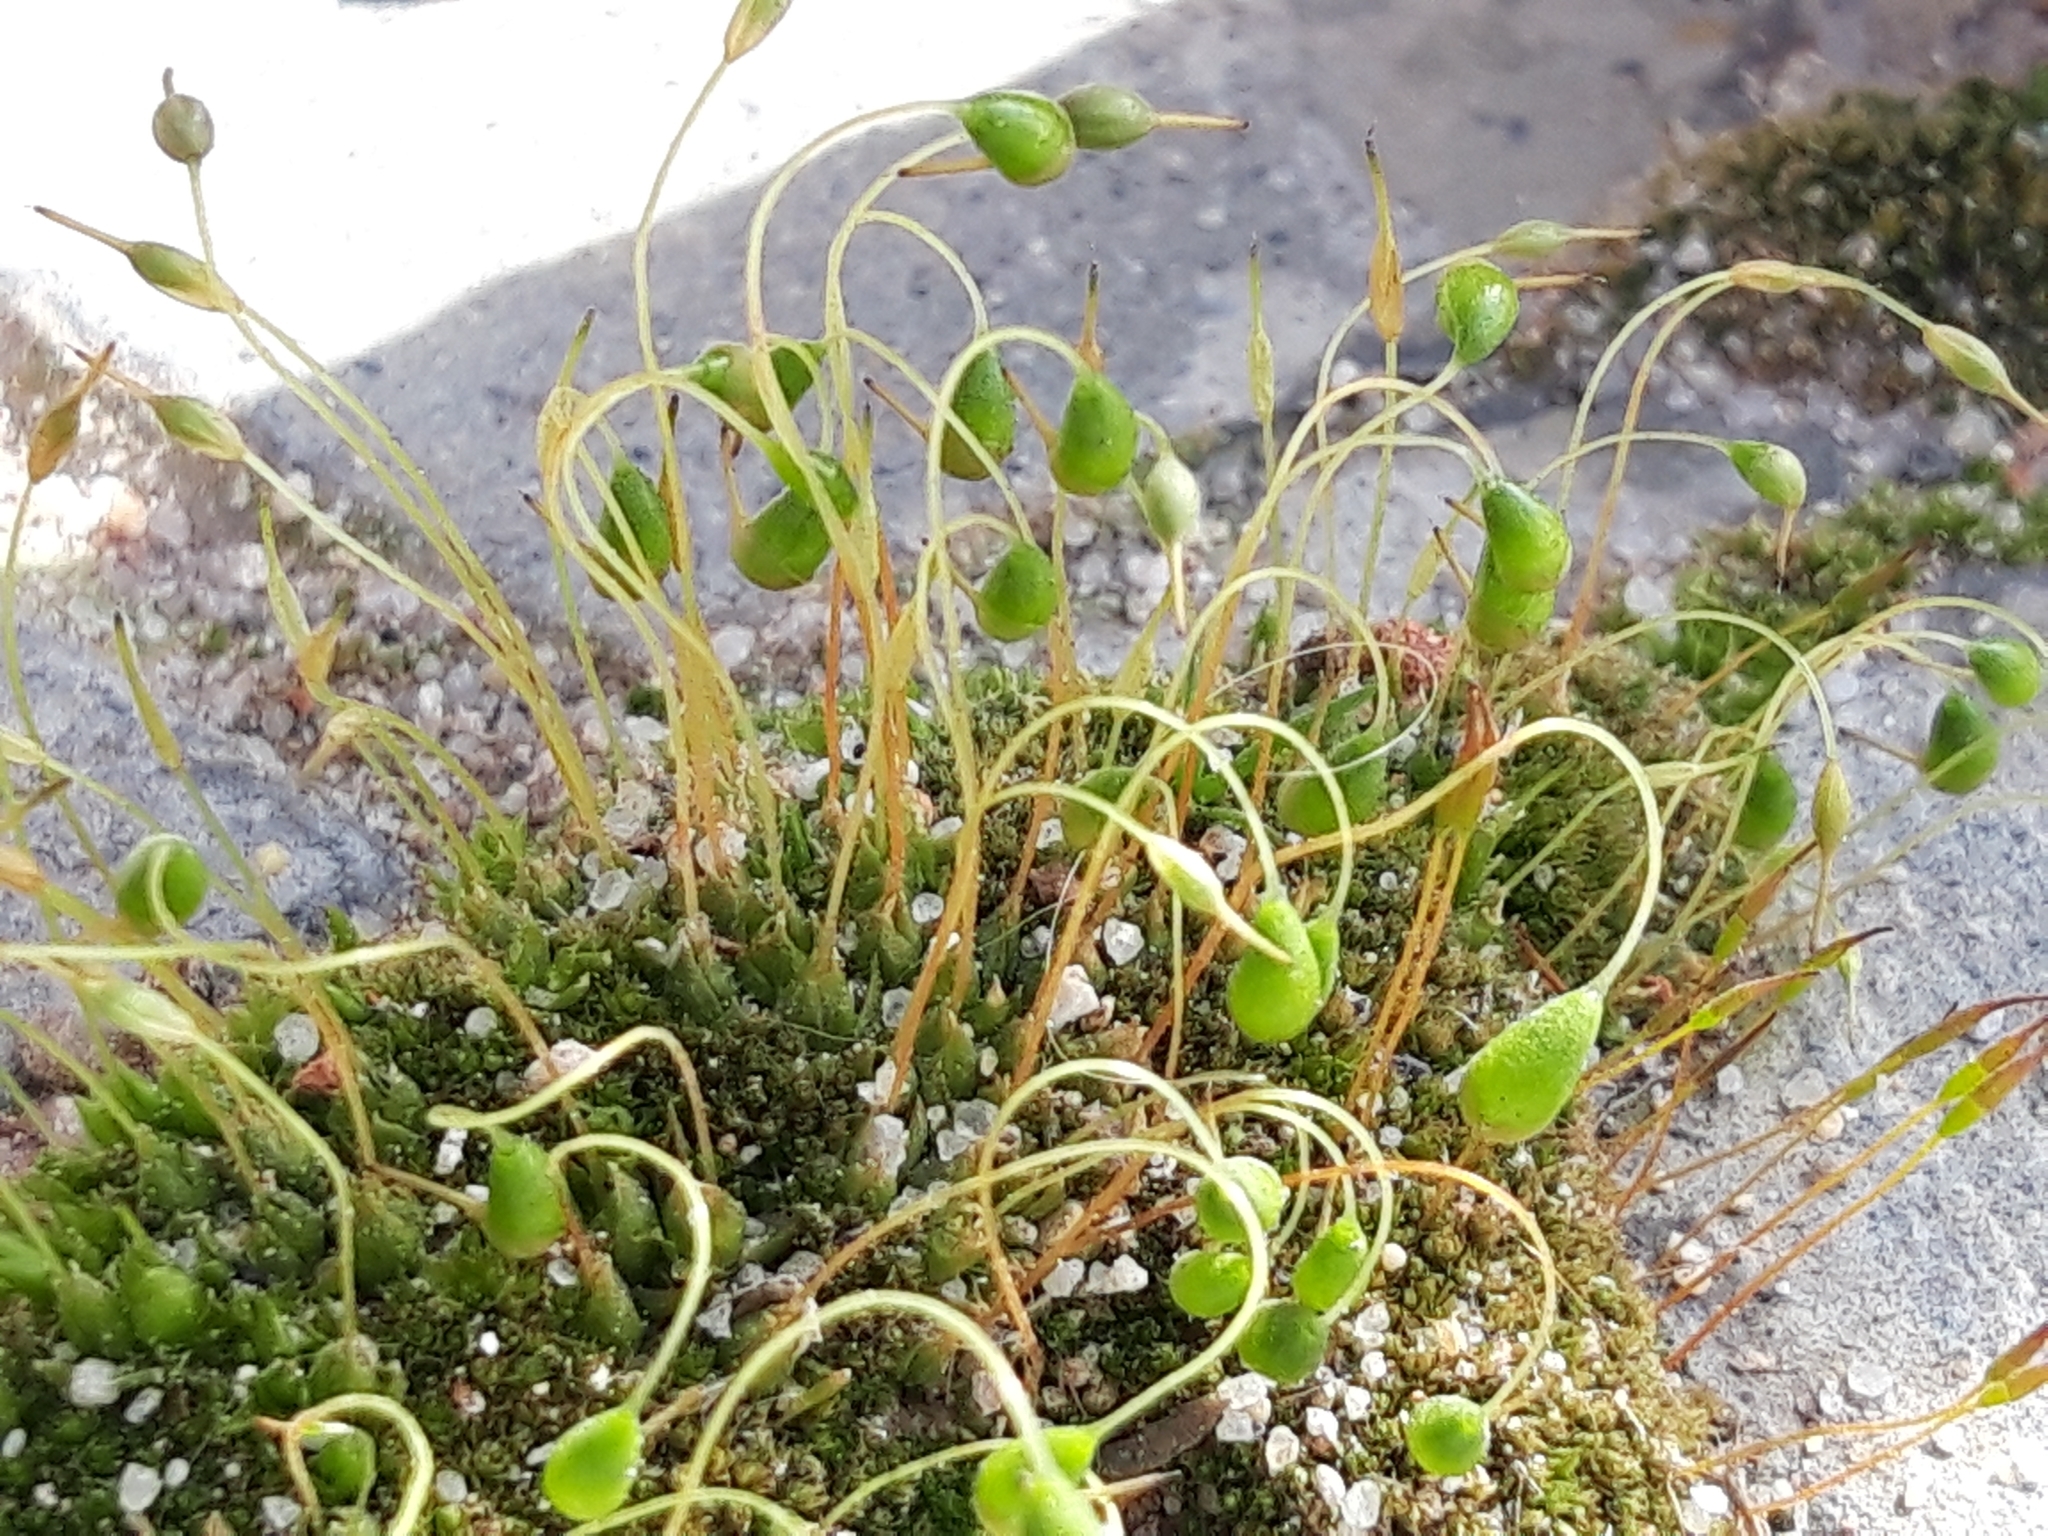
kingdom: Plantae
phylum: Bryophyta
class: Bryopsida
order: Funariales
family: Funariaceae
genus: Funaria
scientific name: Funaria hygrometrica
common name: Common cord moss
